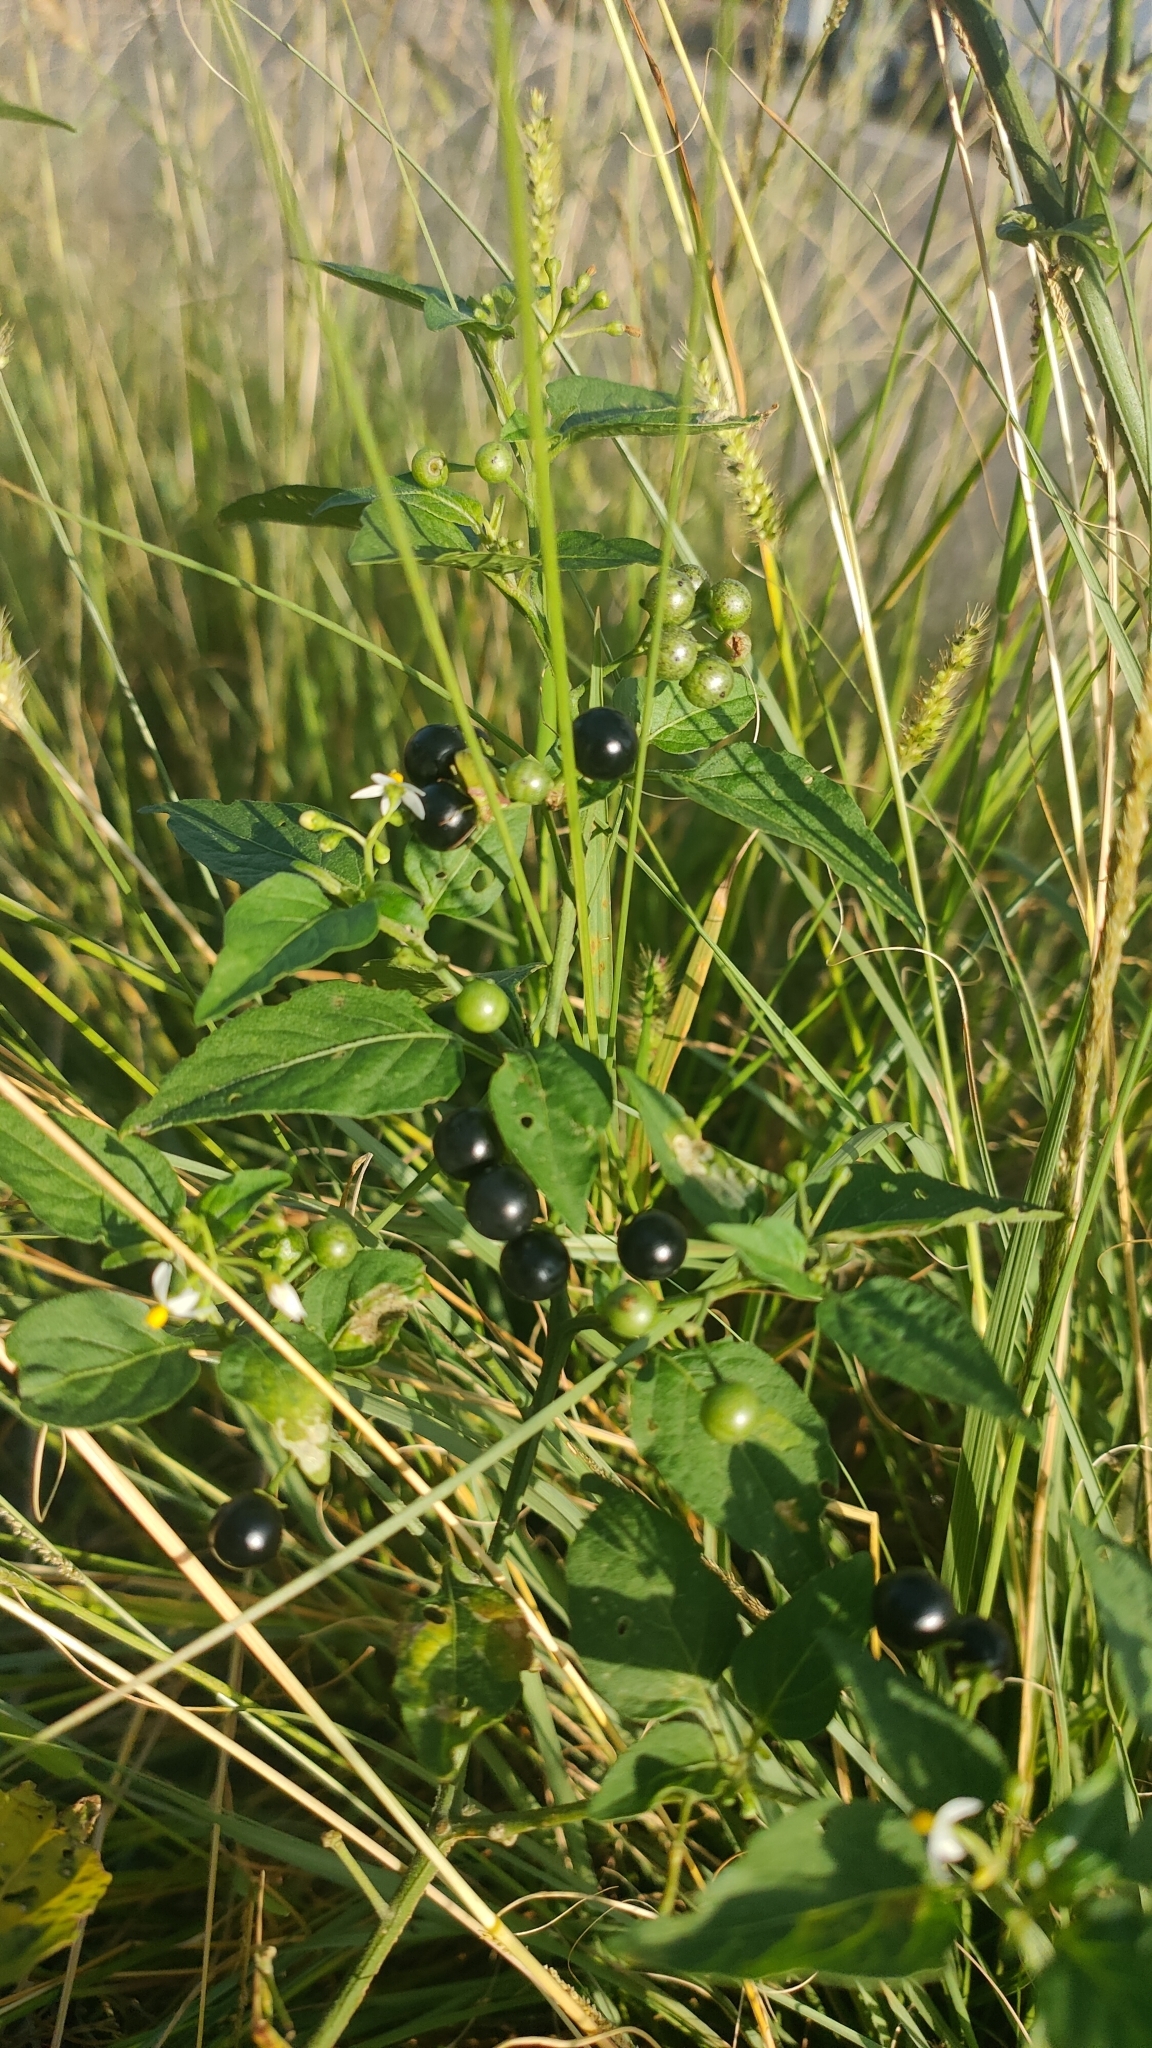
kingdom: Plantae
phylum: Tracheophyta
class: Magnoliopsida
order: Solanales
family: Solanaceae
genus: Solanum
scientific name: Solanum americanum
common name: American black nightshade
